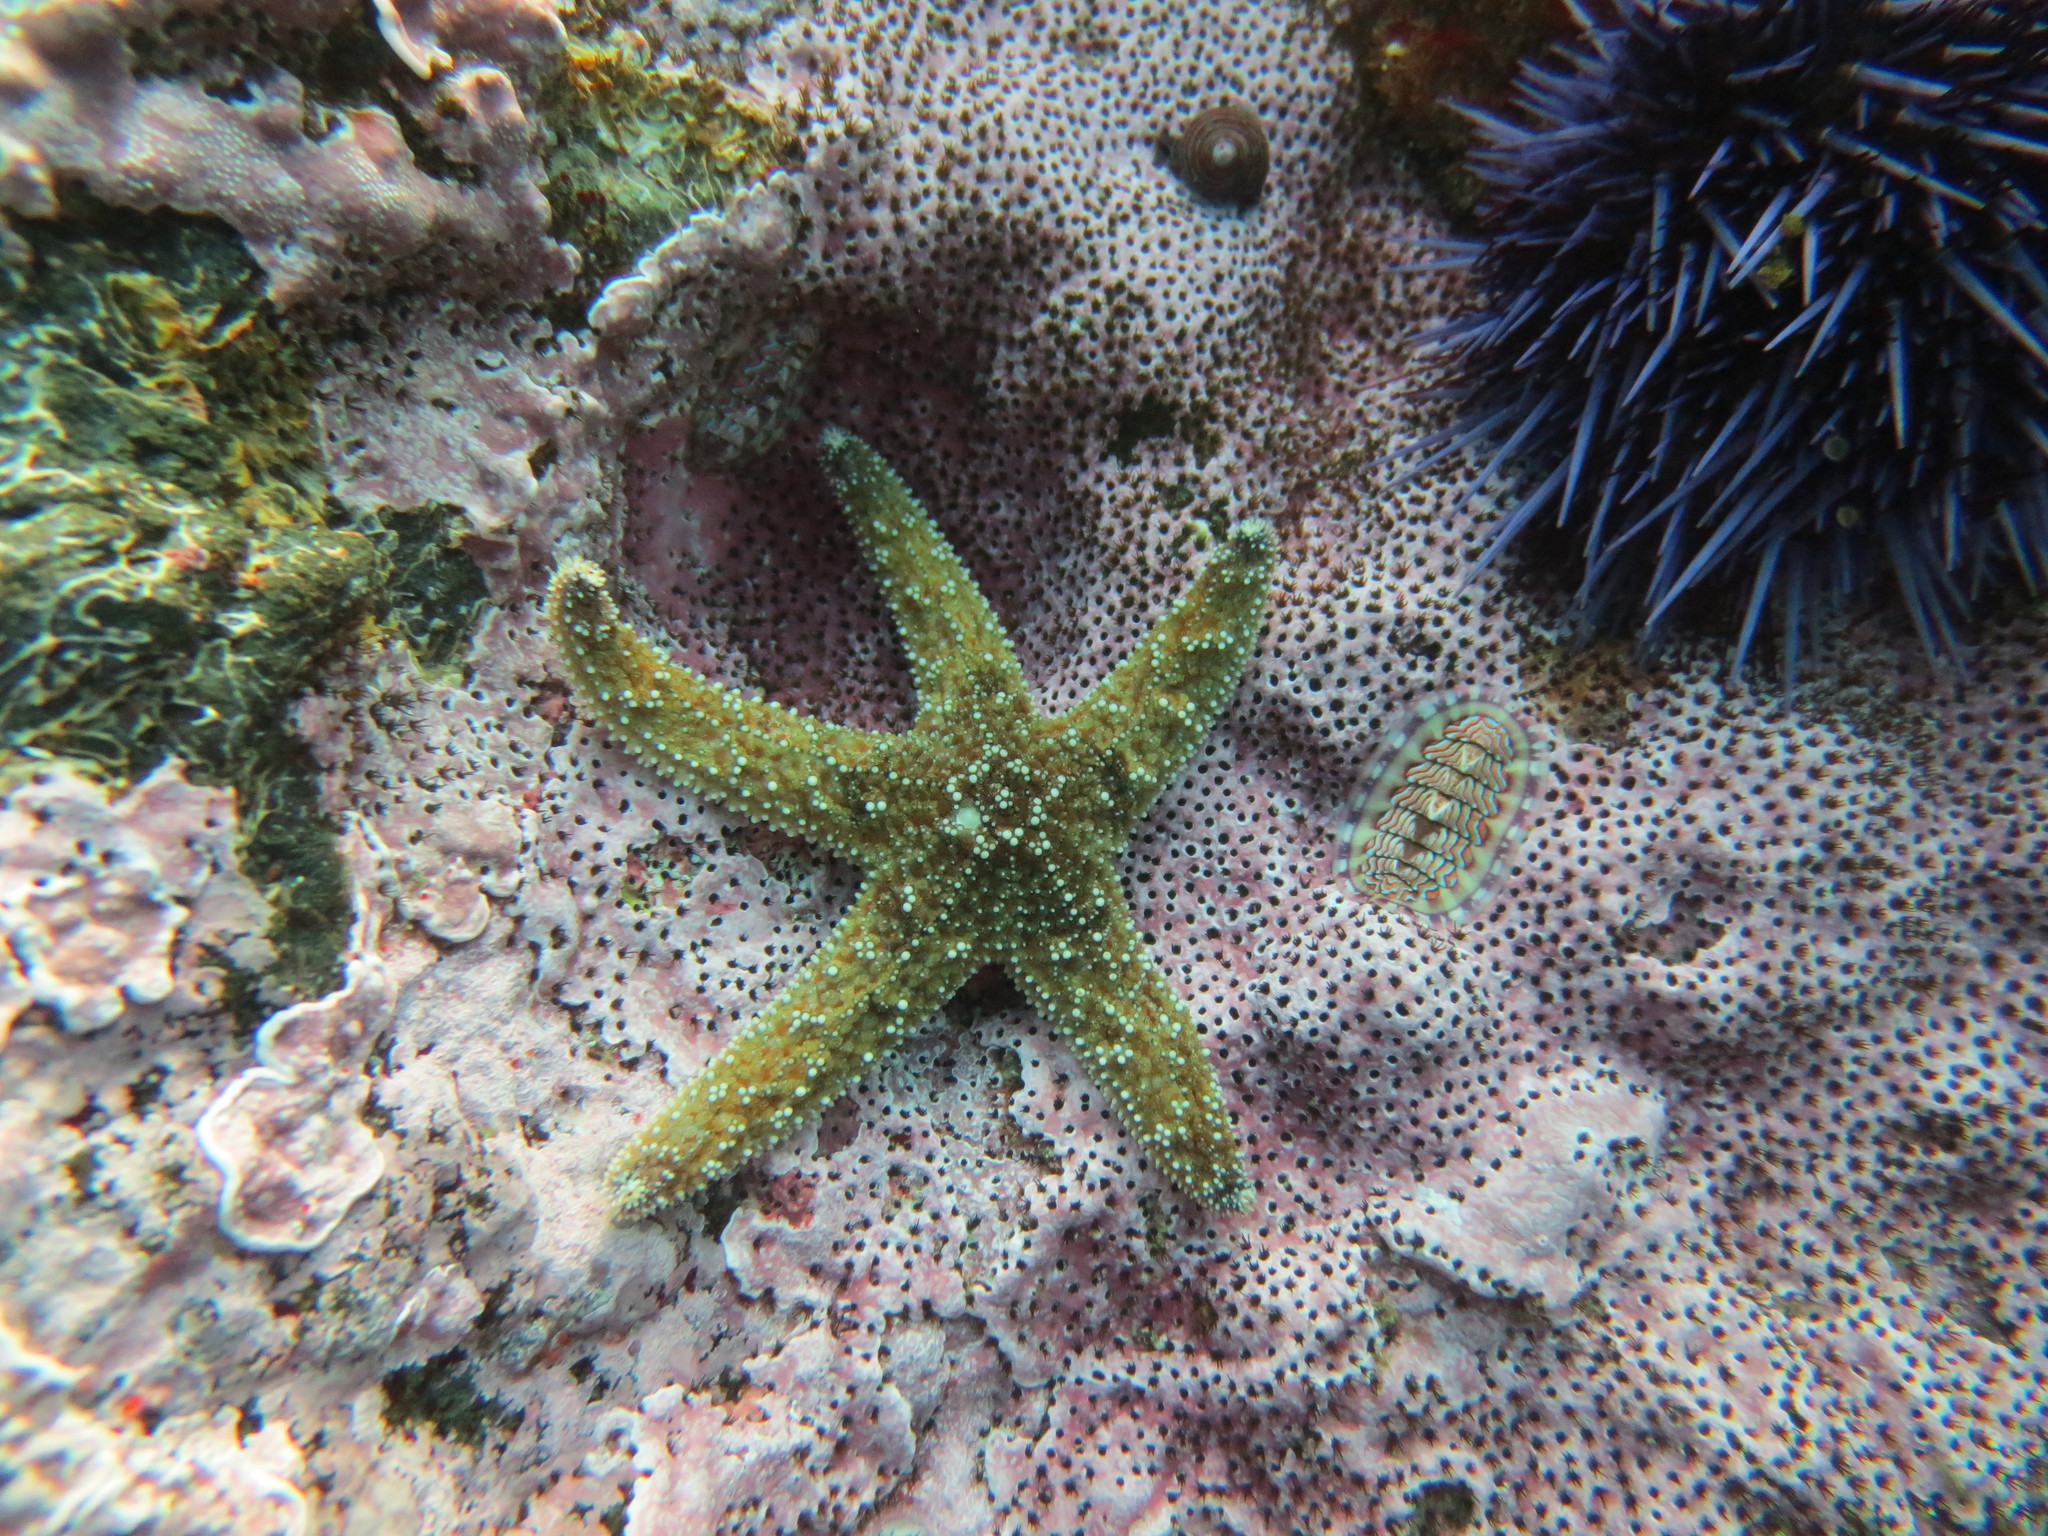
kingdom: Animalia
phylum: Echinodermata
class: Asteroidea
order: Forcipulatida
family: Asteriidae
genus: Pisaster
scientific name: Pisaster ochraceus
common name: Ochre stars
